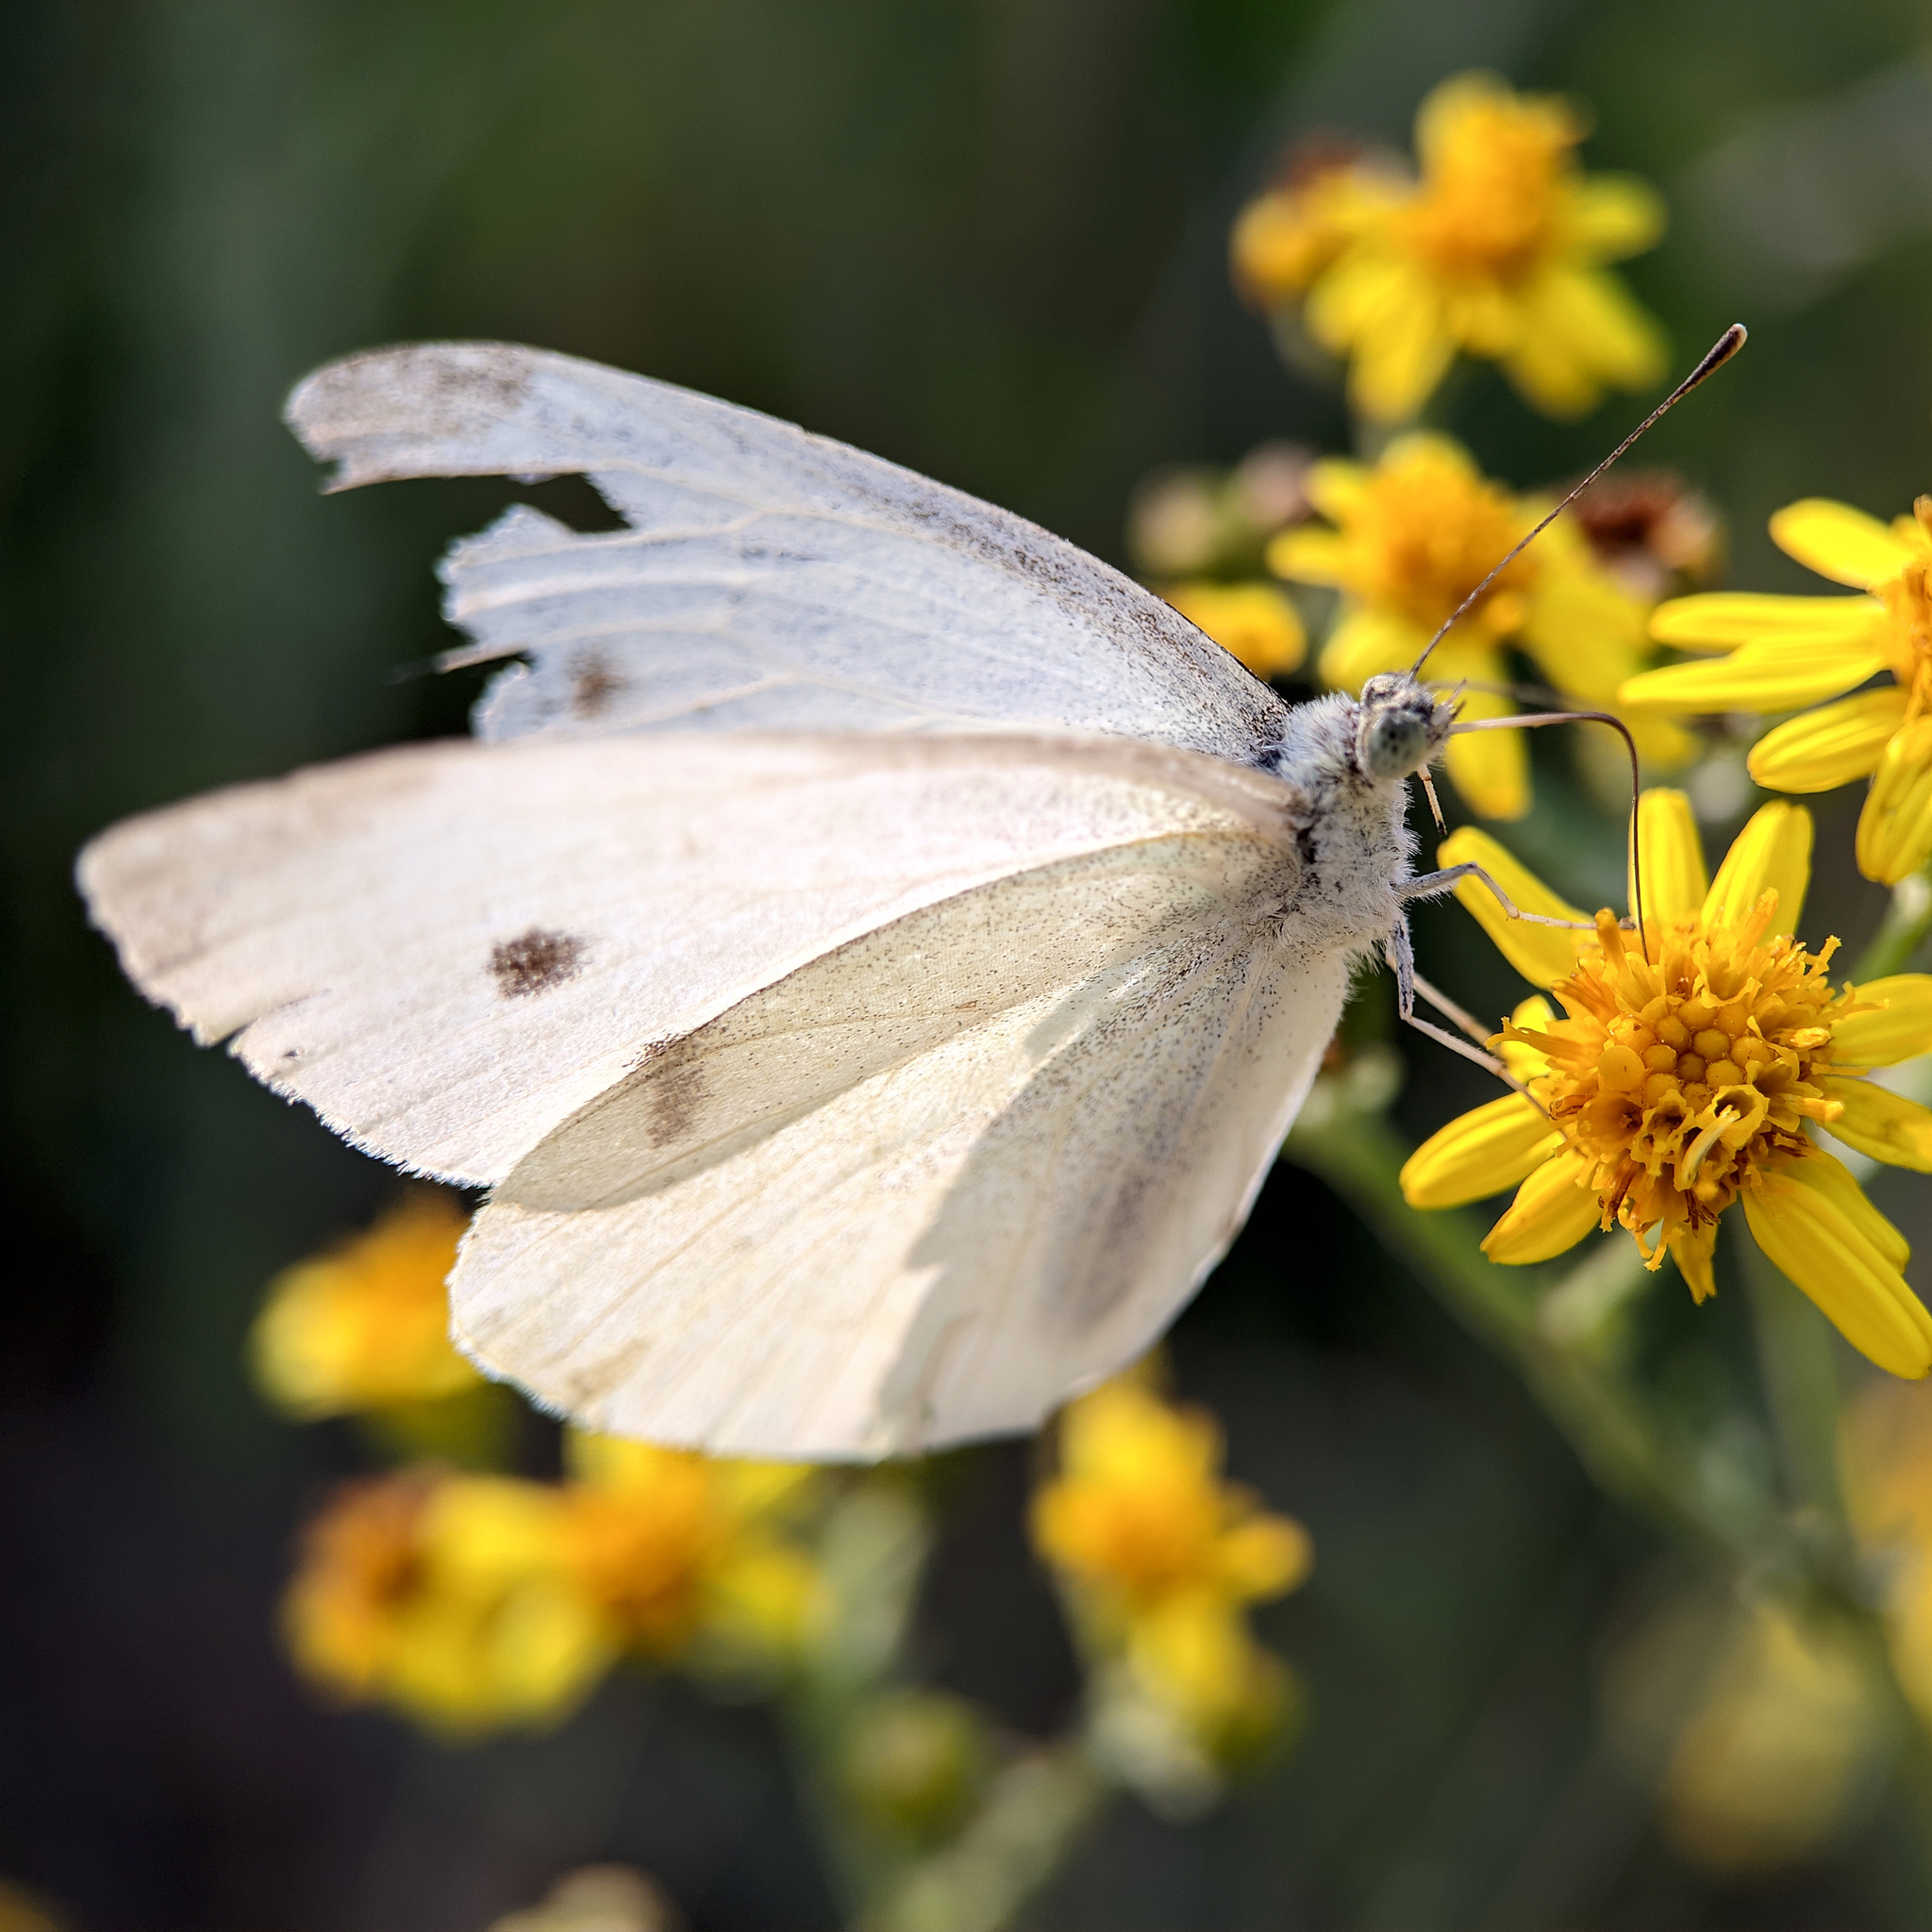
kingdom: Animalia
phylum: Arthropoda
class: Insecta
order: Lepidoptera
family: Pieridae
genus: Pieris
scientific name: Pieris rapae
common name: Small white
